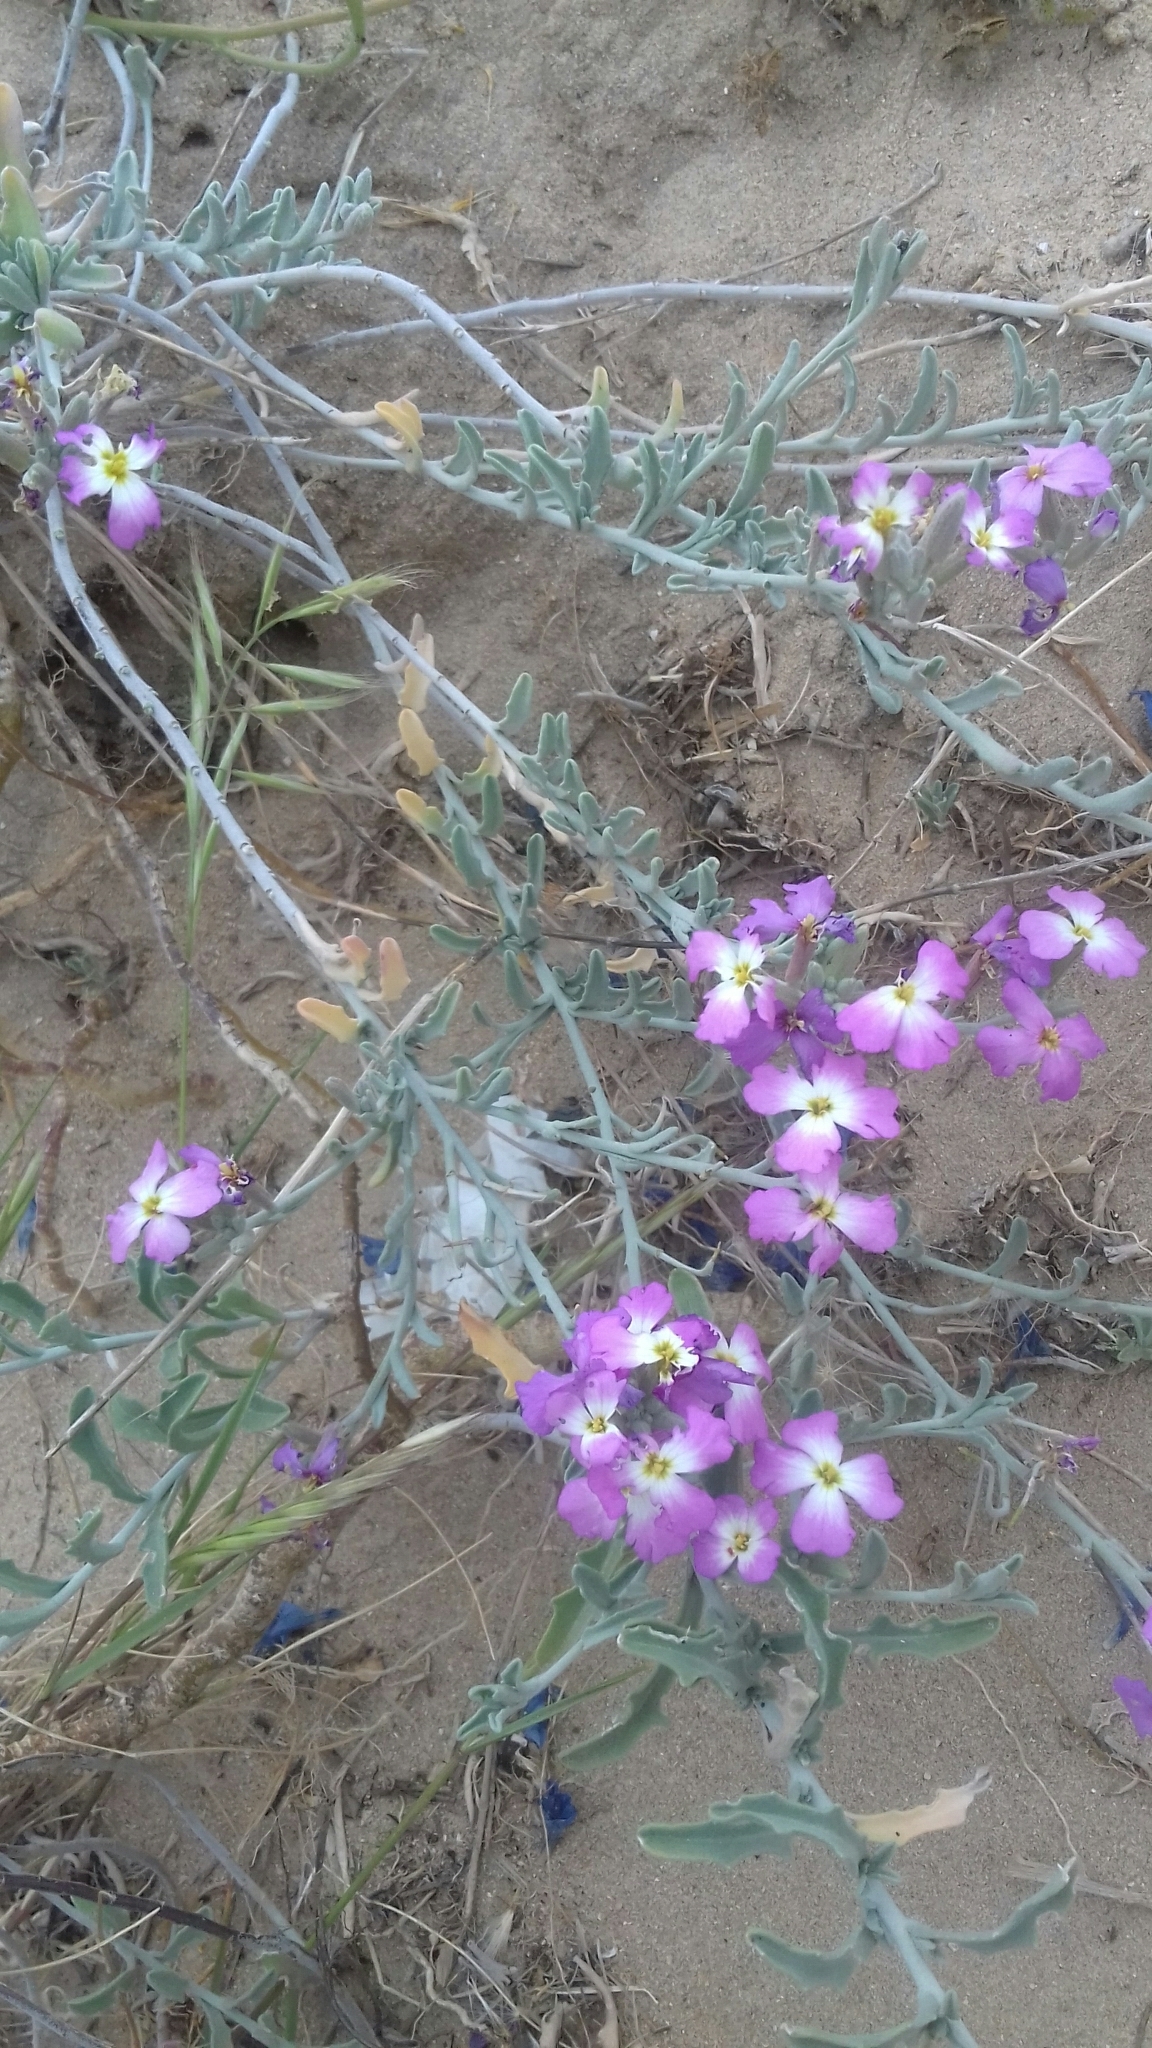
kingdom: Plantae
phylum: Tracheophyta
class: Magnoliopsida
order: Brassicales
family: Brassicaceae
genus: Marcuskochia
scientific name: Marcuskochia littorea
